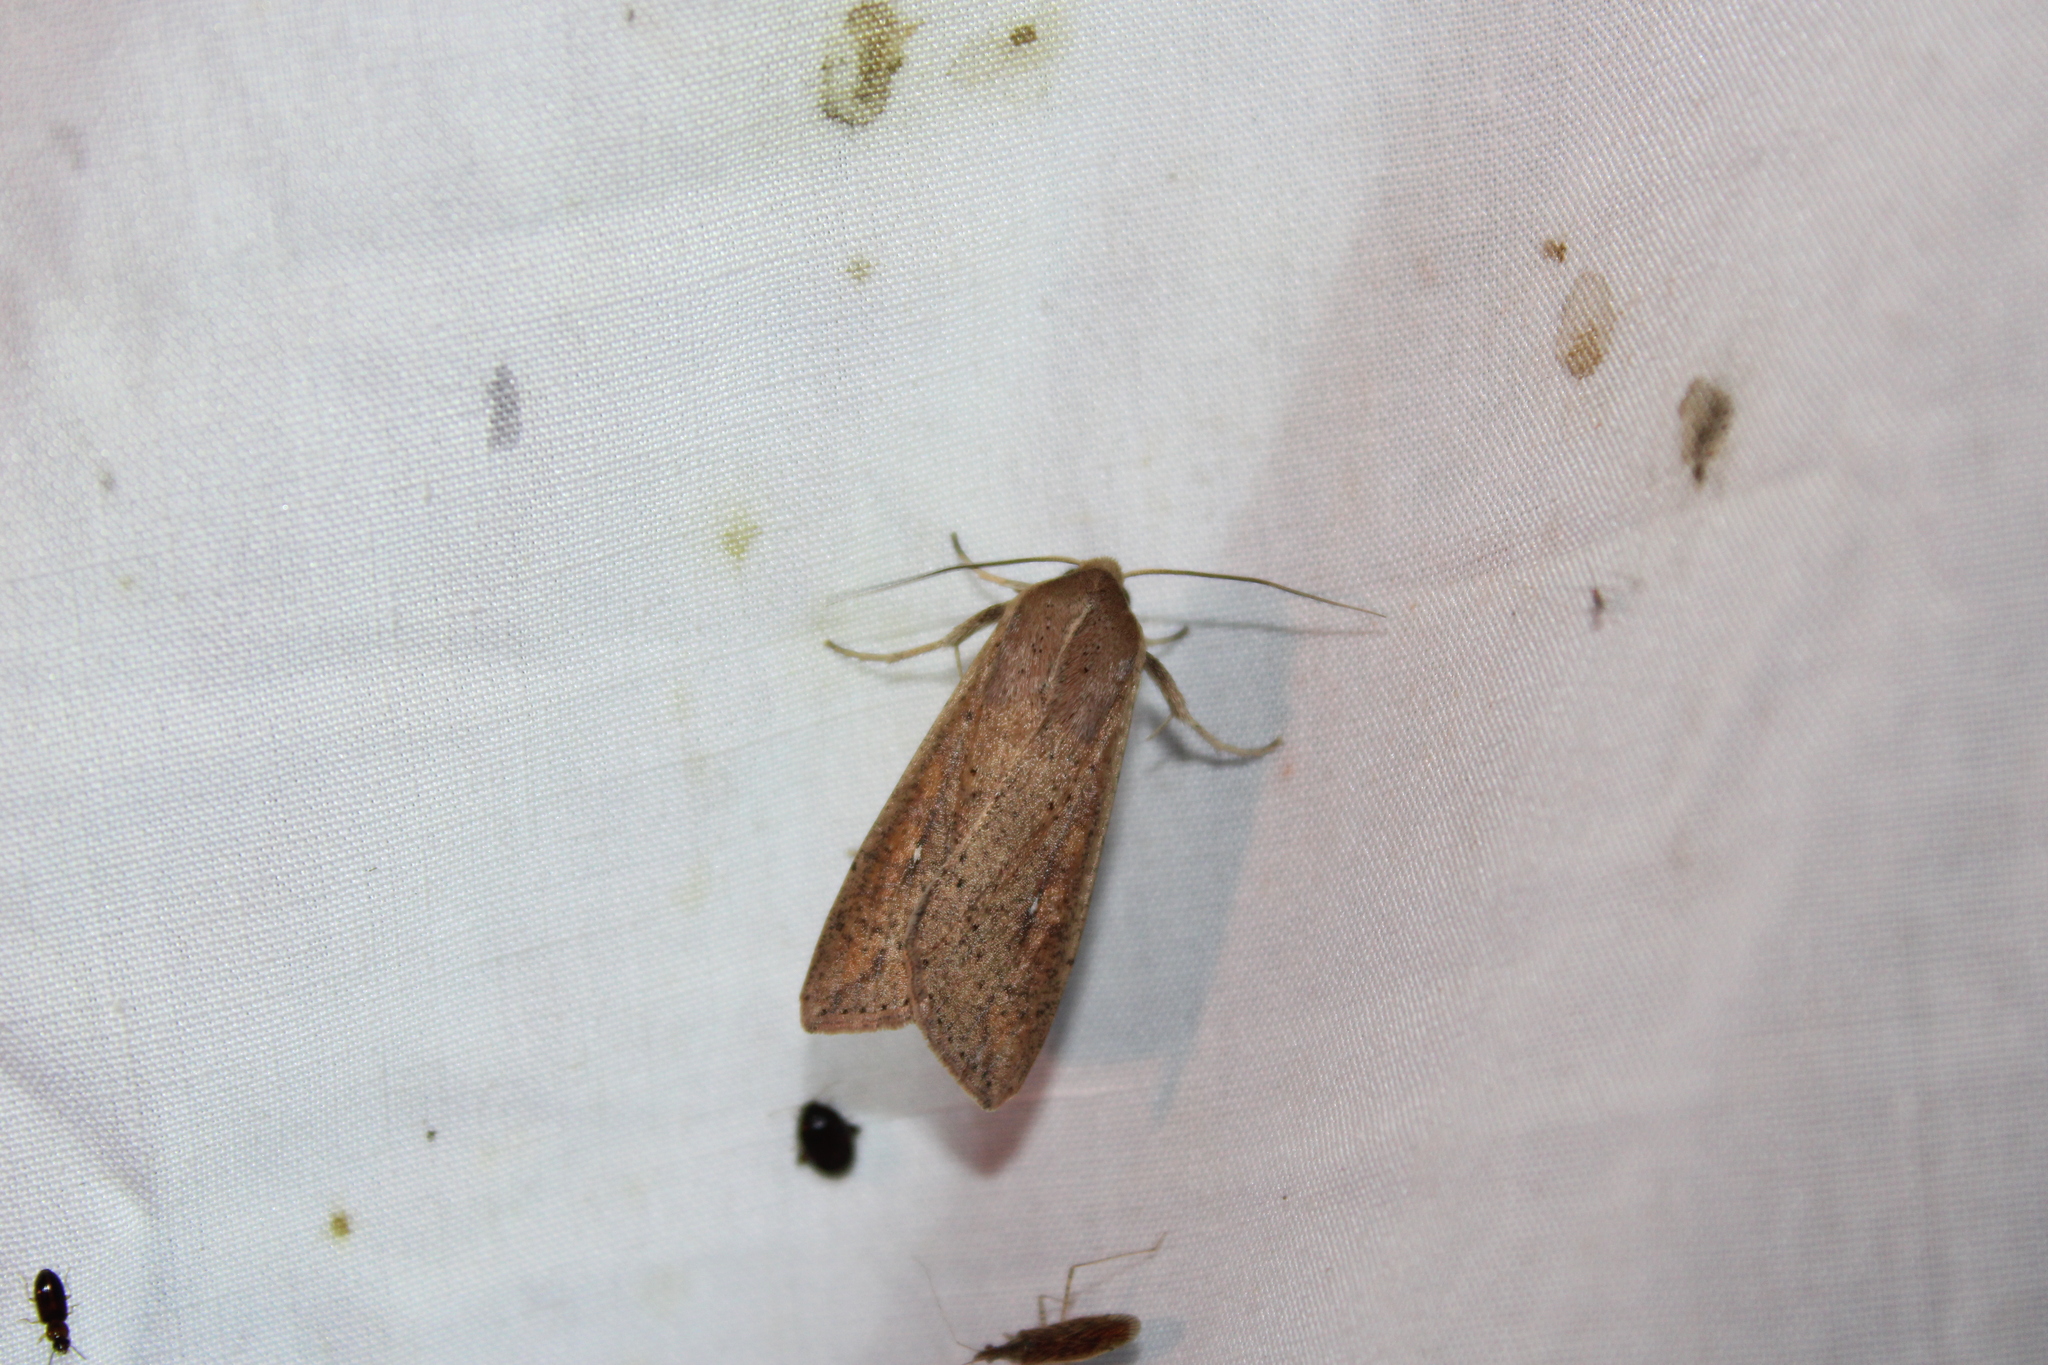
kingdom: Animalia
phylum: Arthropoda
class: Insecta
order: Lepidoptera
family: Noctuidae
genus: Mythimna
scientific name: Mythimna unipuncta
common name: White-speck
